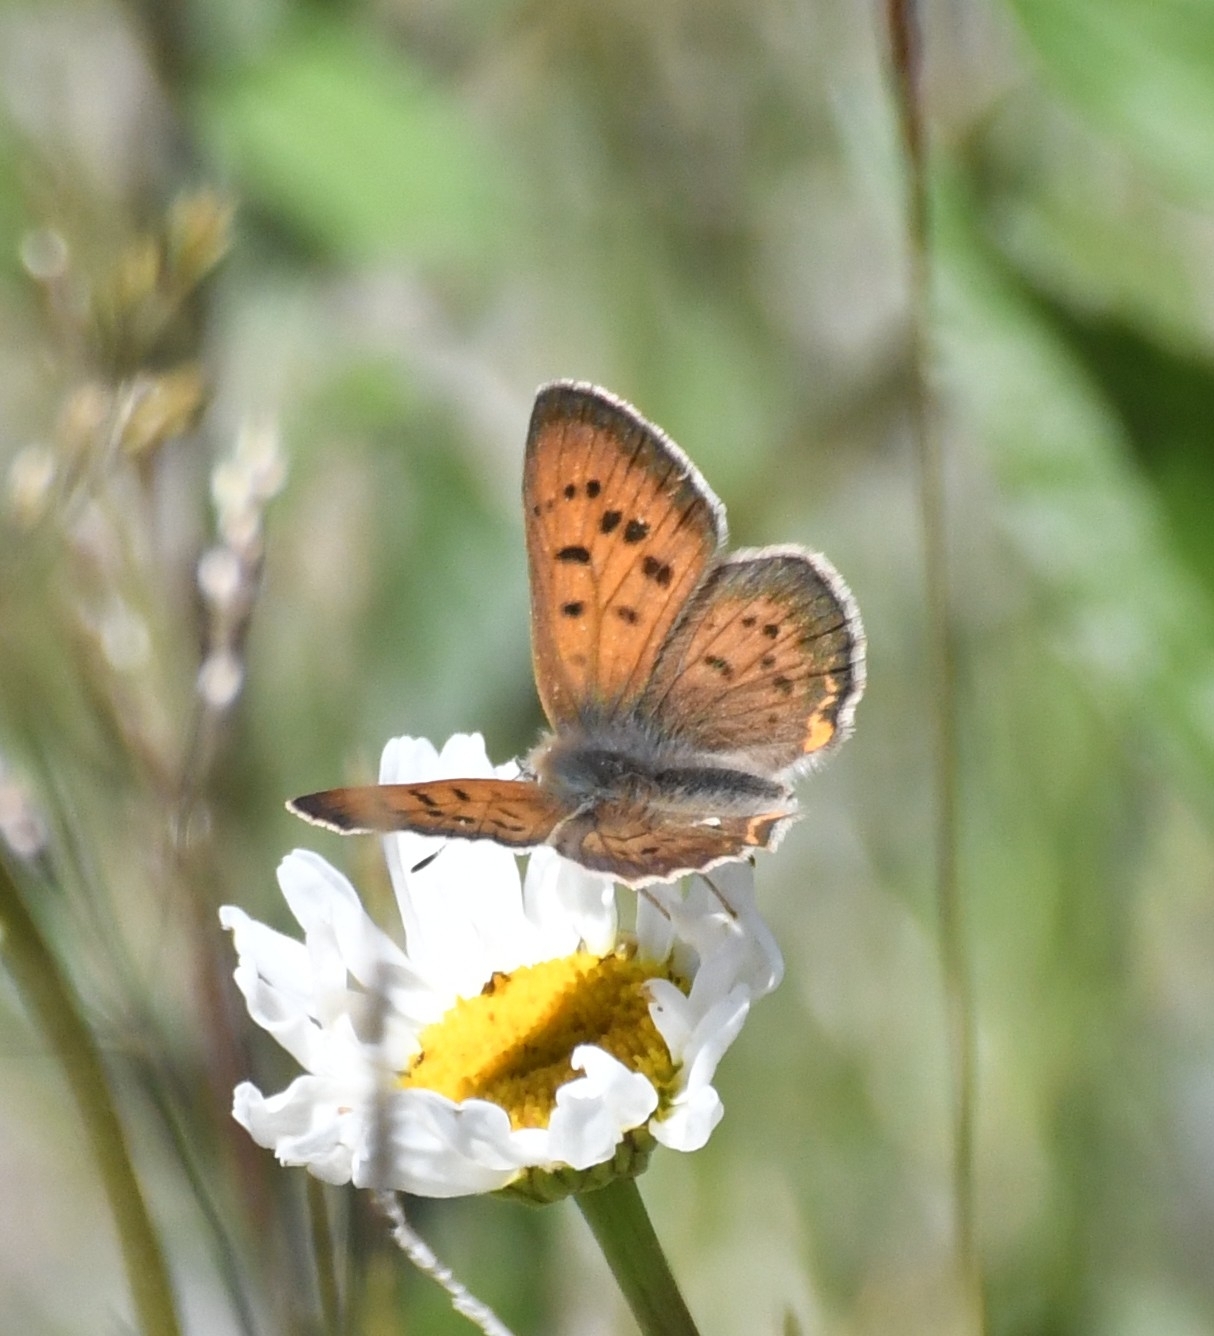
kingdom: Animalia
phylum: Arthropoda
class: Insecta
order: Lepidoptera
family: Lycaenidae
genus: Tharsalea
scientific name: Tharsalea helloides
